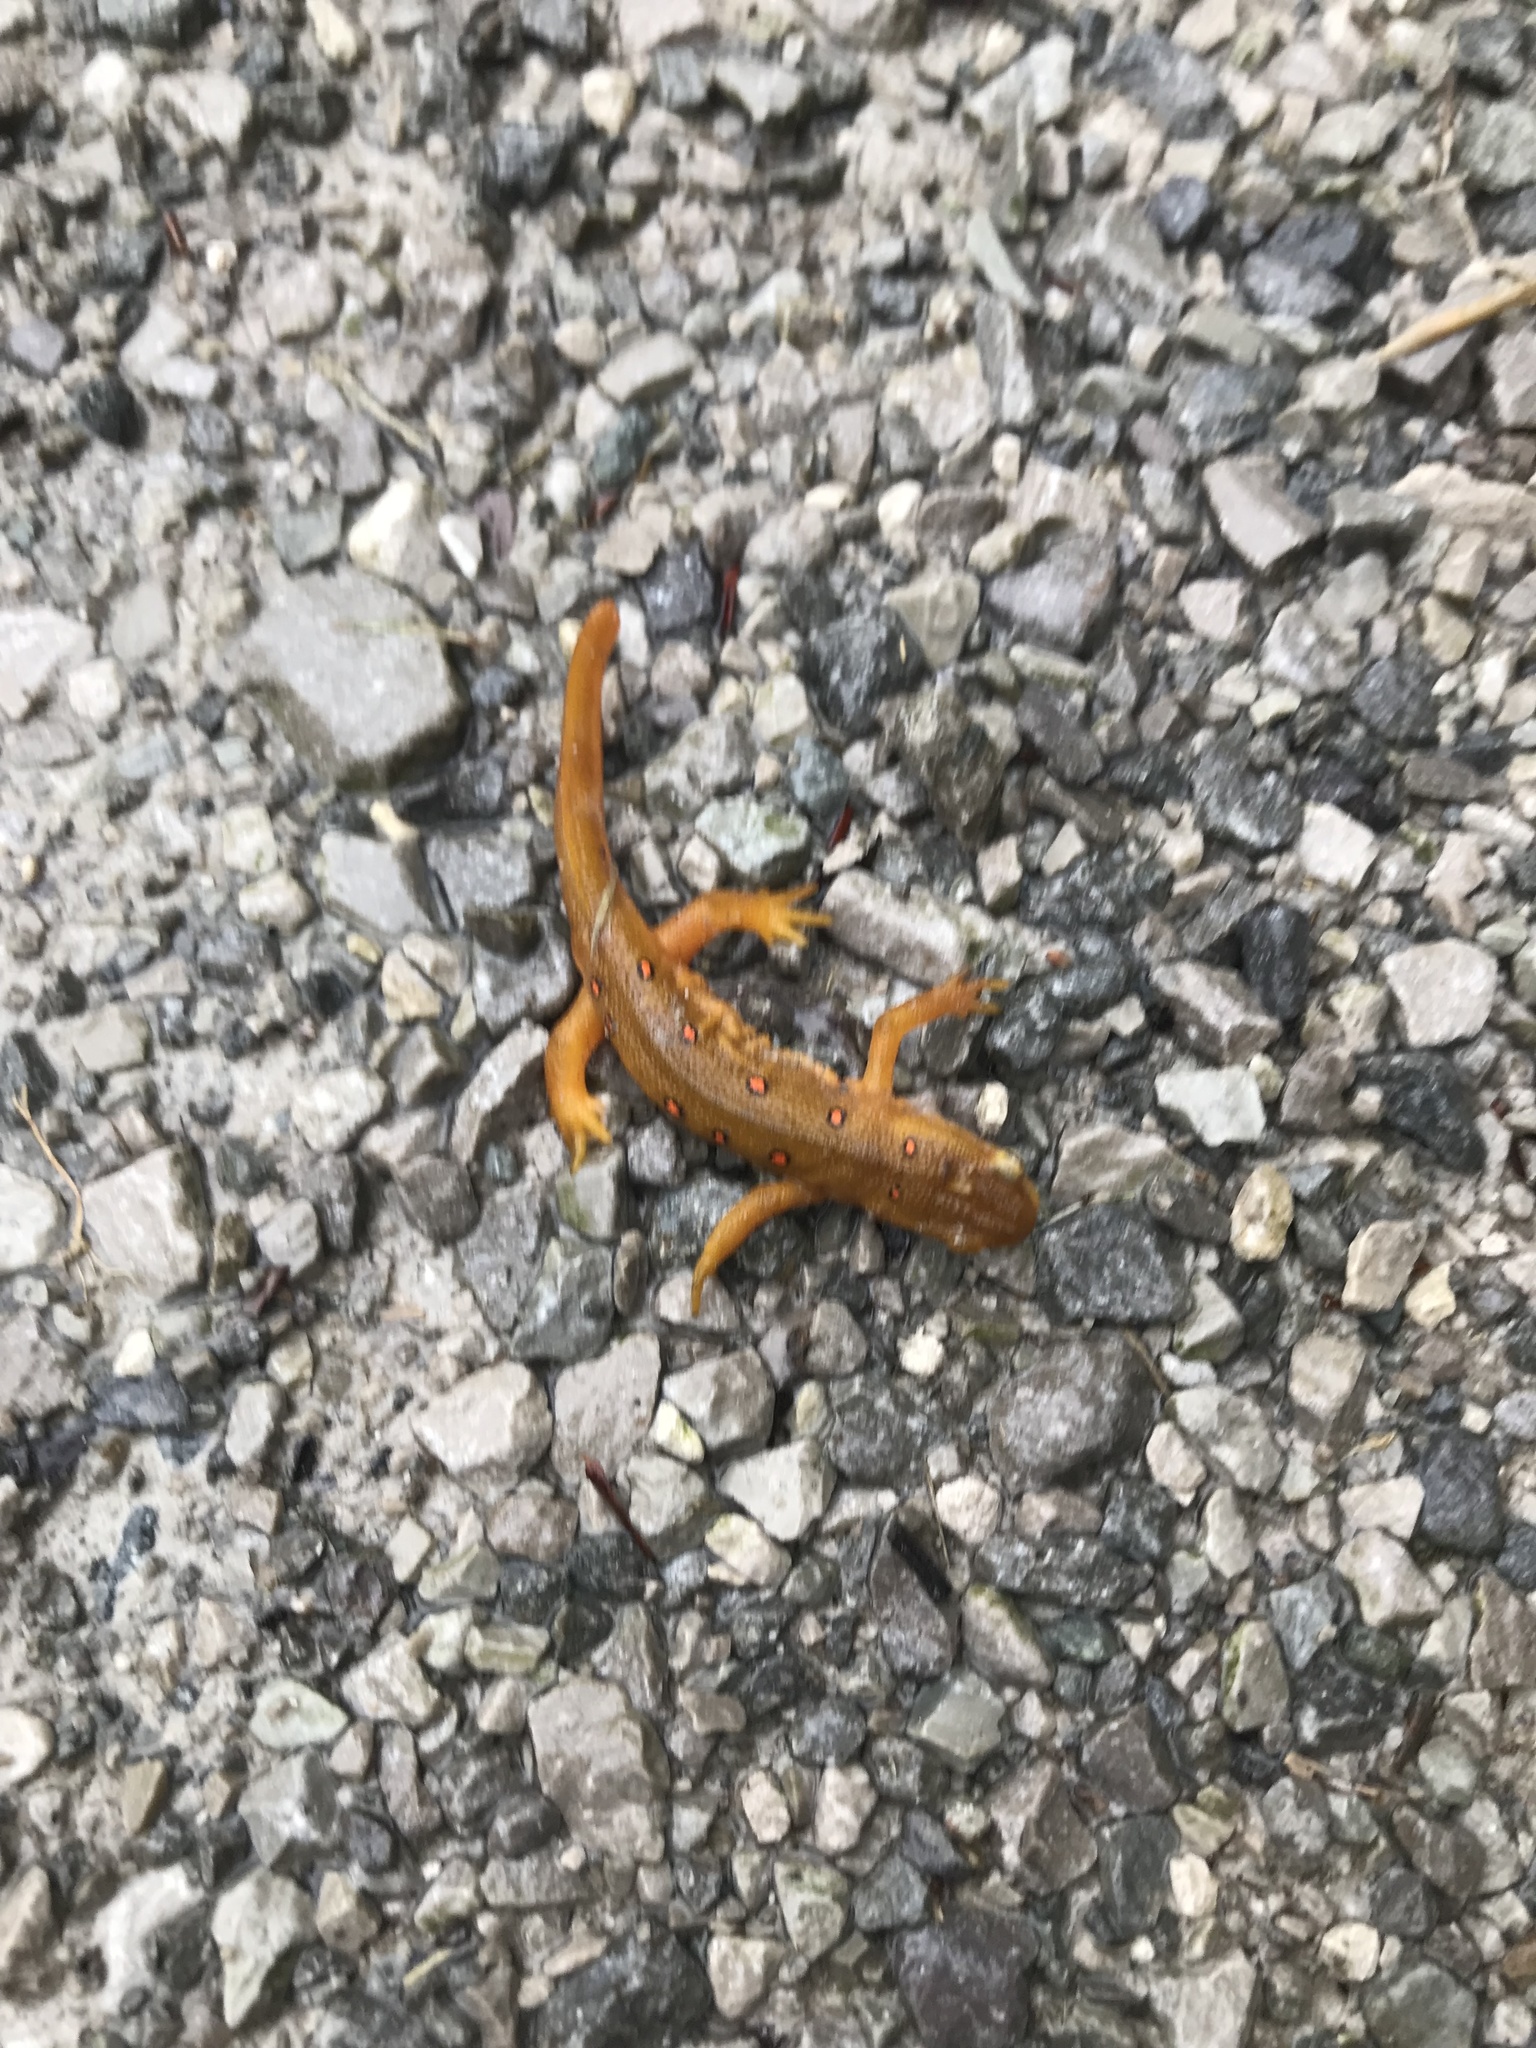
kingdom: Animalia
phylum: Chordata
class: Amphibia
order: Caudata
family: Salamandridae
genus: Notophthalmus
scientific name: Notophthalmus viridescens
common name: Eastern newt
